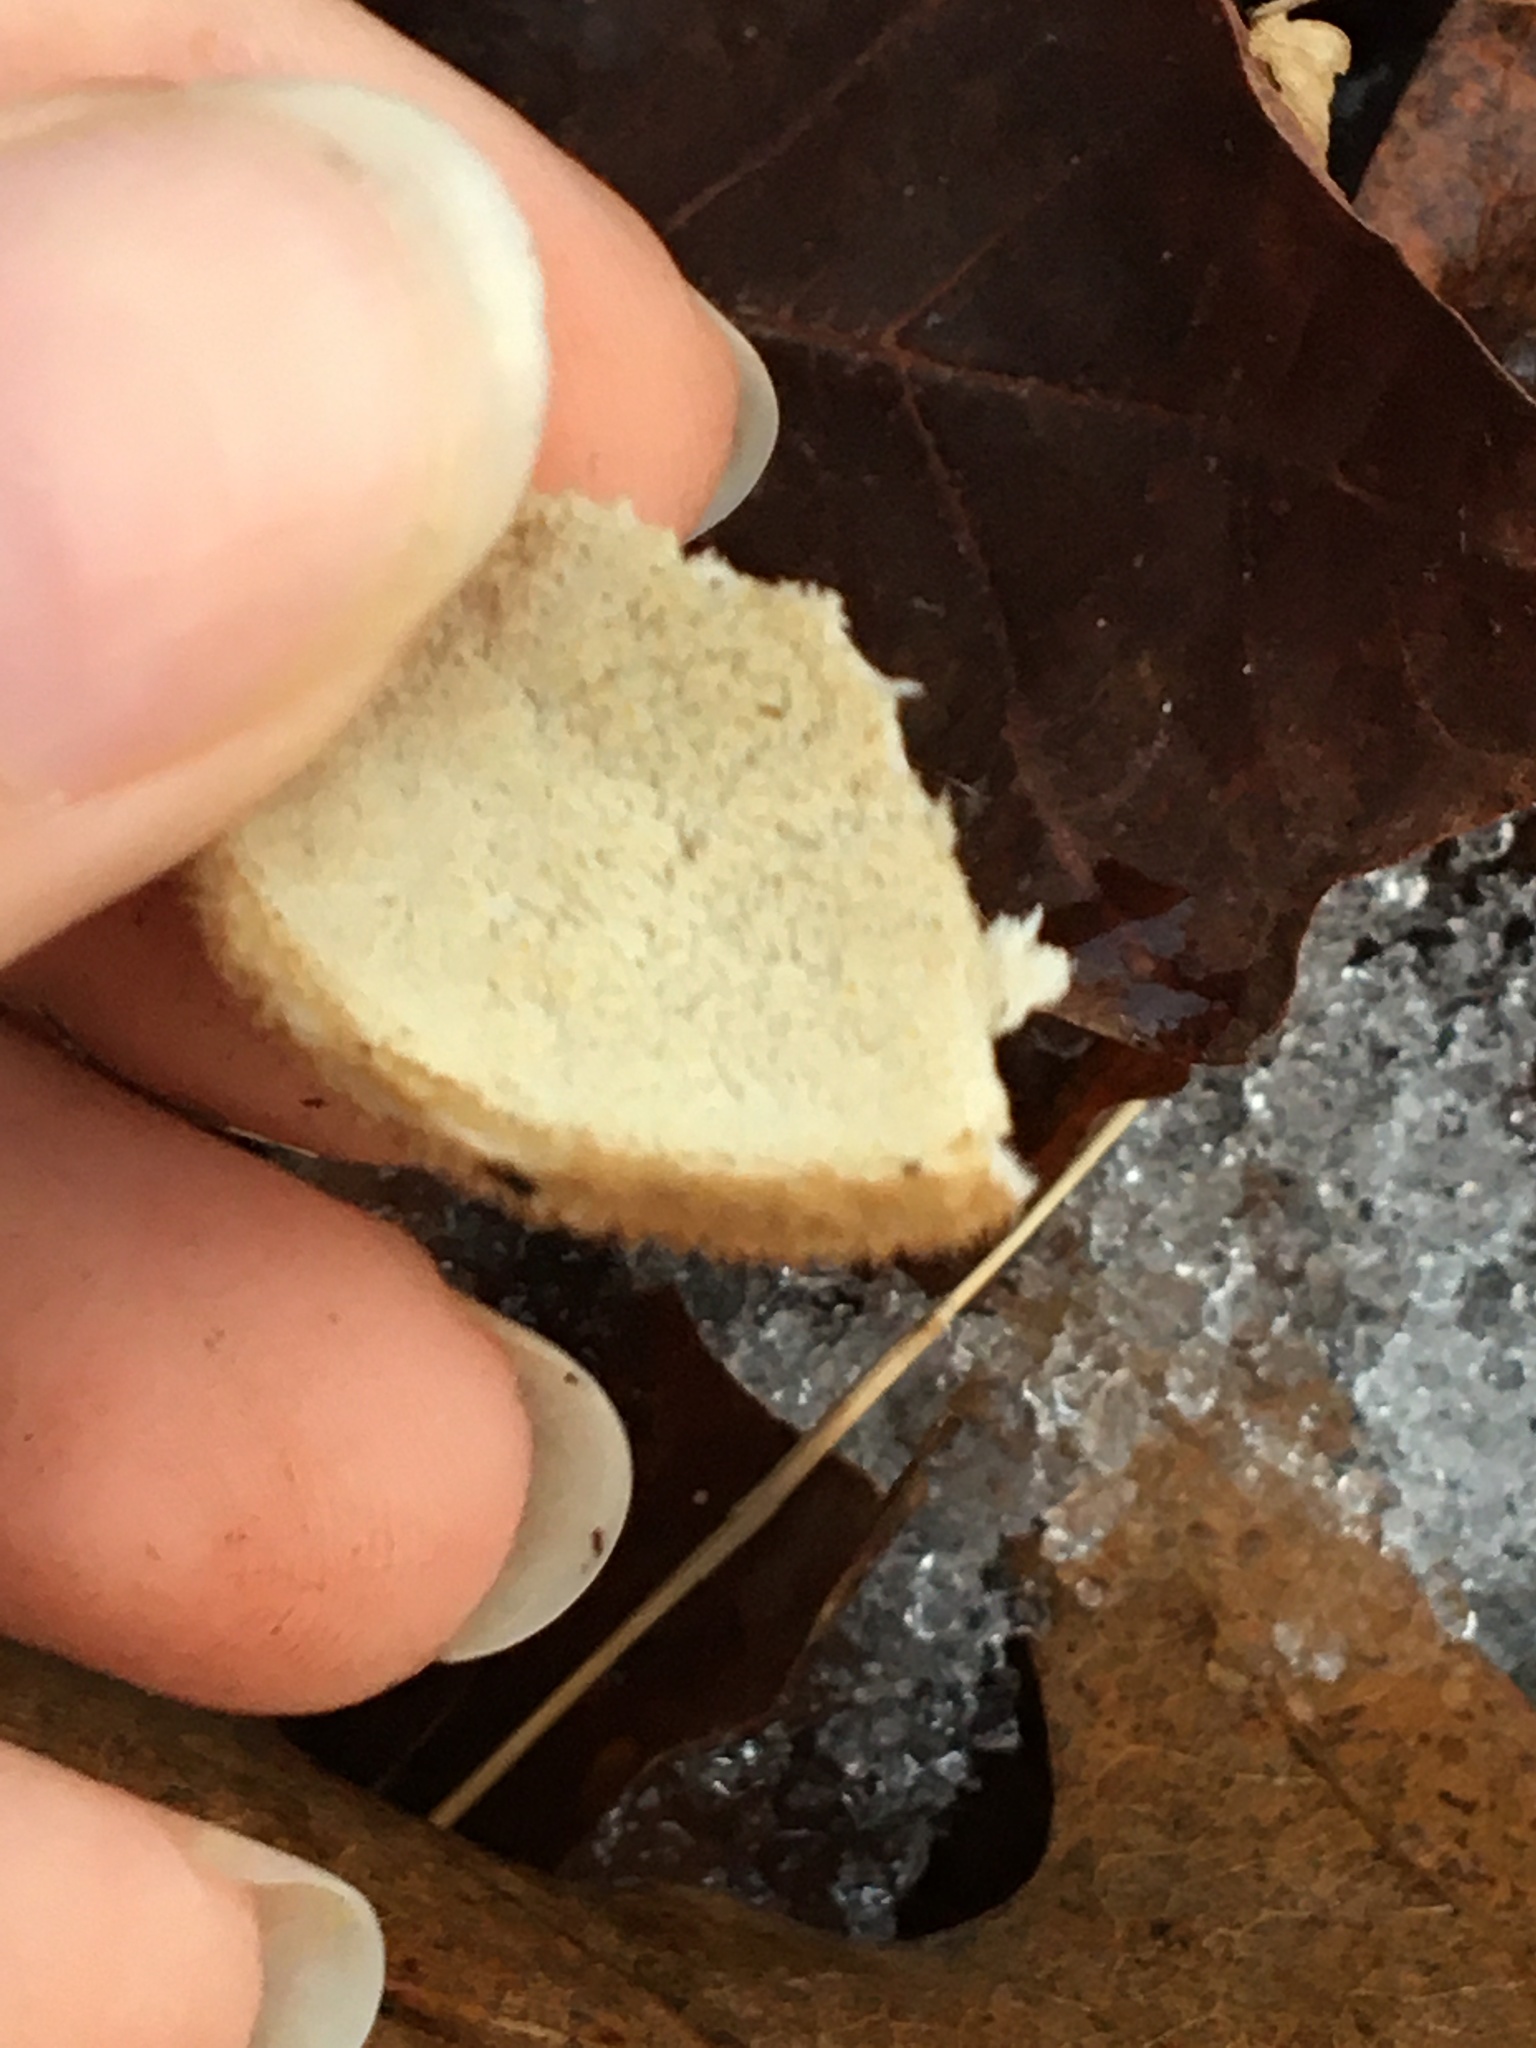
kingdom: Fungi
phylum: Basidiomycota
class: Agaricomycetes
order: Polyporales
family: Meruliaceae
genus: Donkia
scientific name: Donkia pulcherrima
